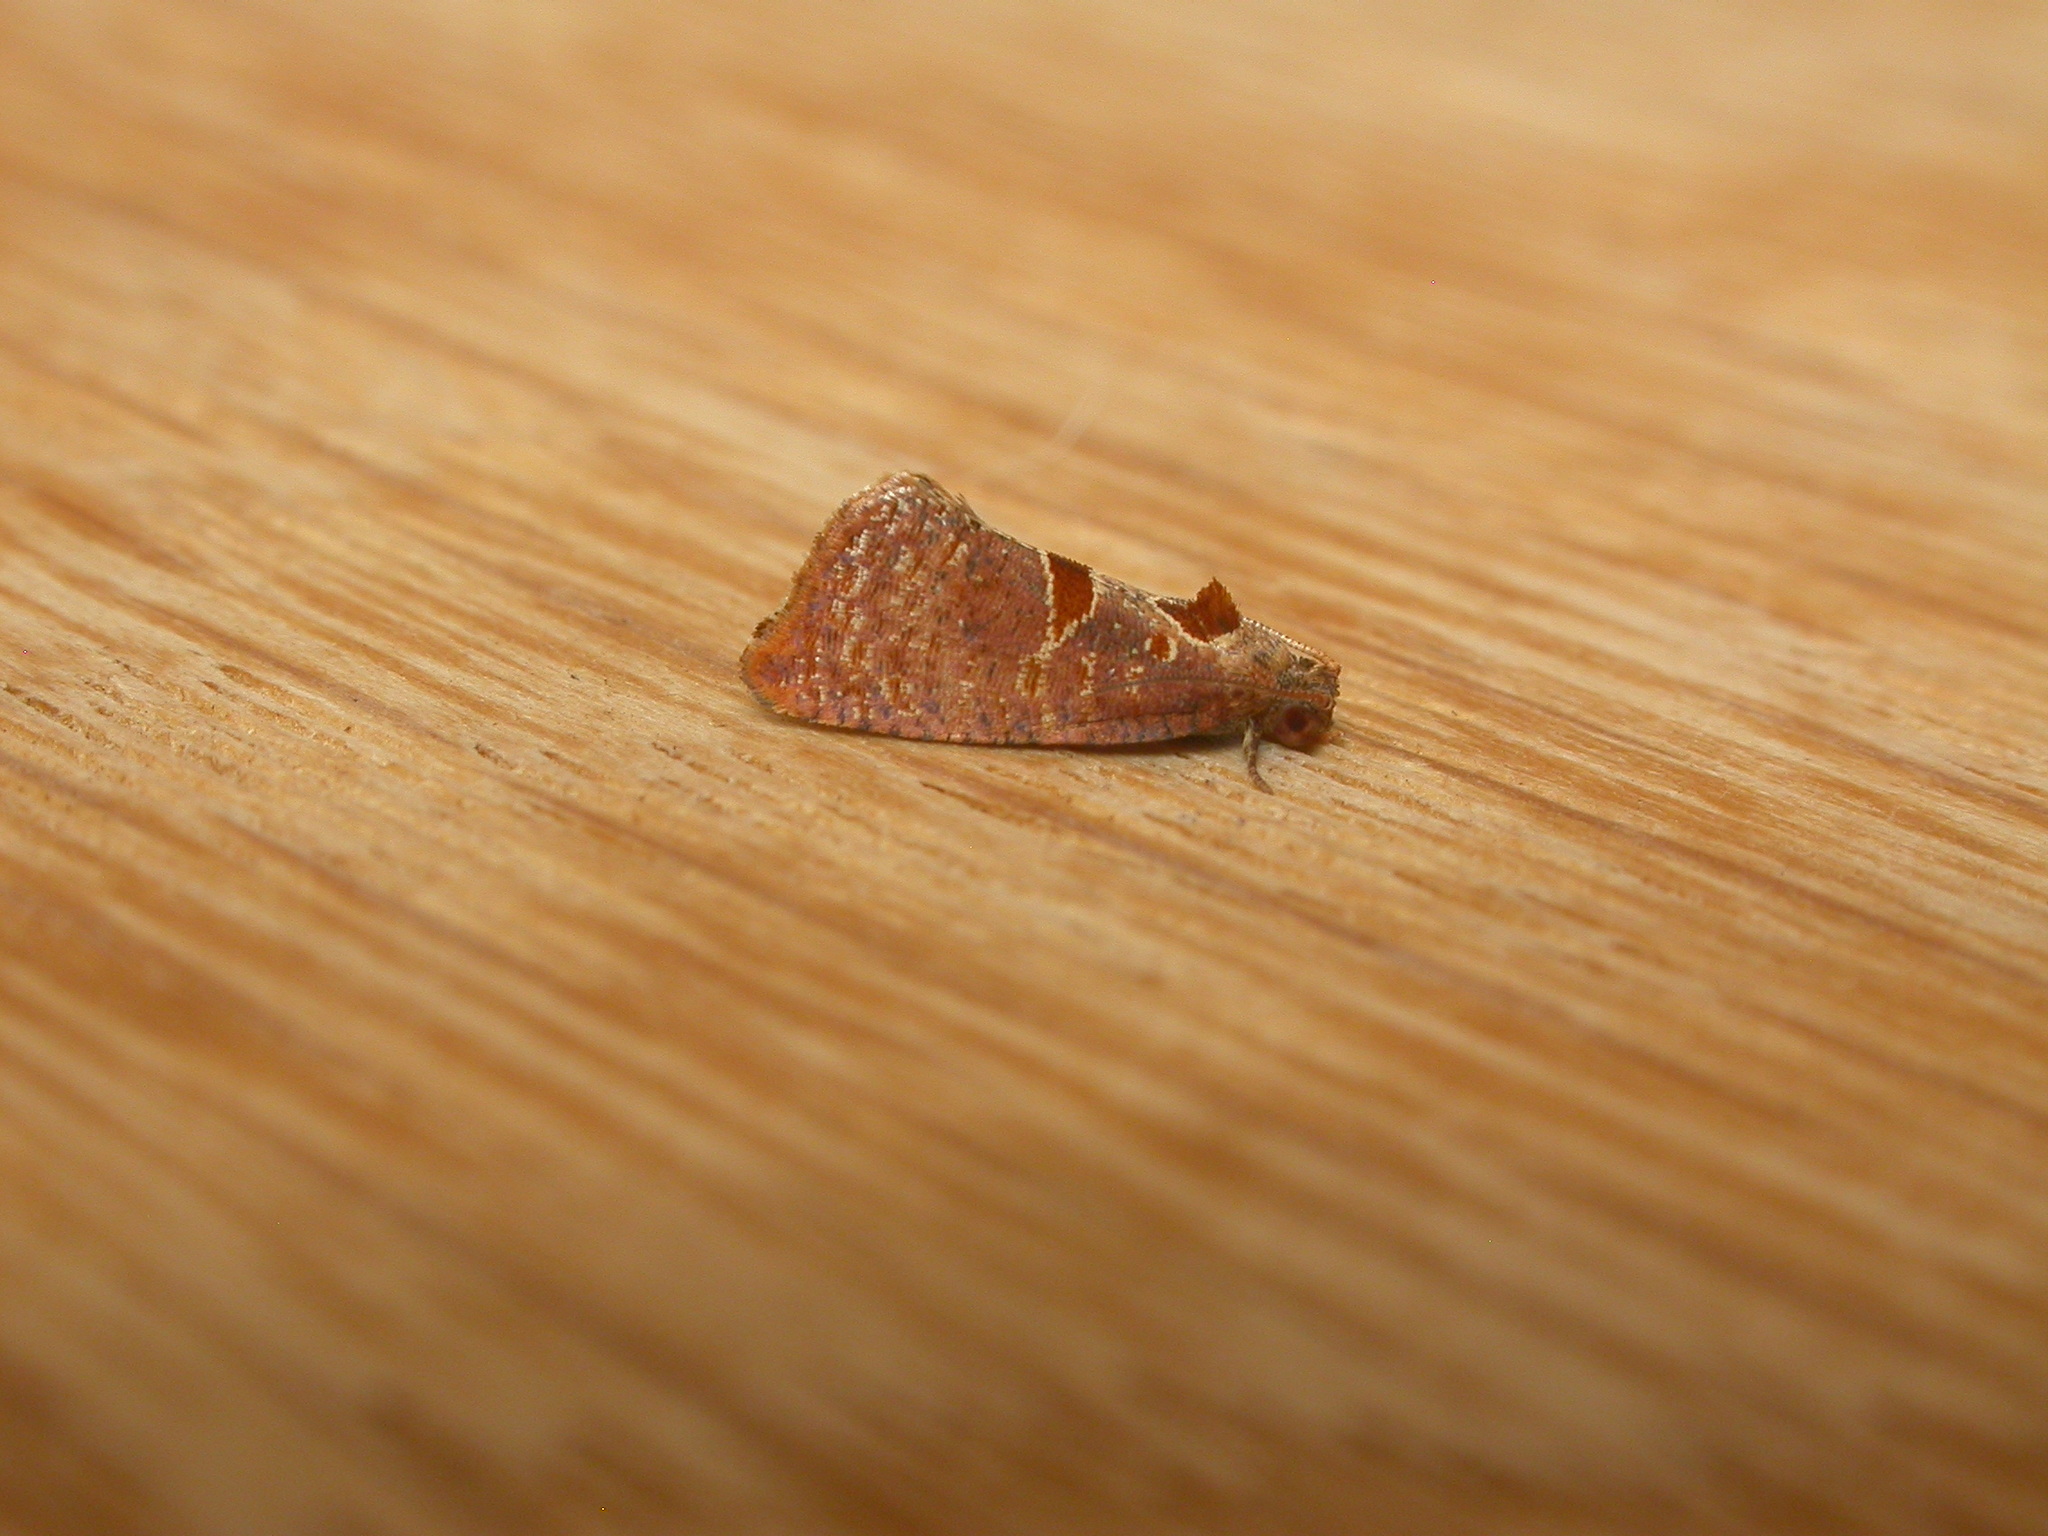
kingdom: Animalia
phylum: Arthropoda
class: Insecta
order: Lepidoptera
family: Tortricidae
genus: Glyphidoptera
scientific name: Glyphidoptera insignana
